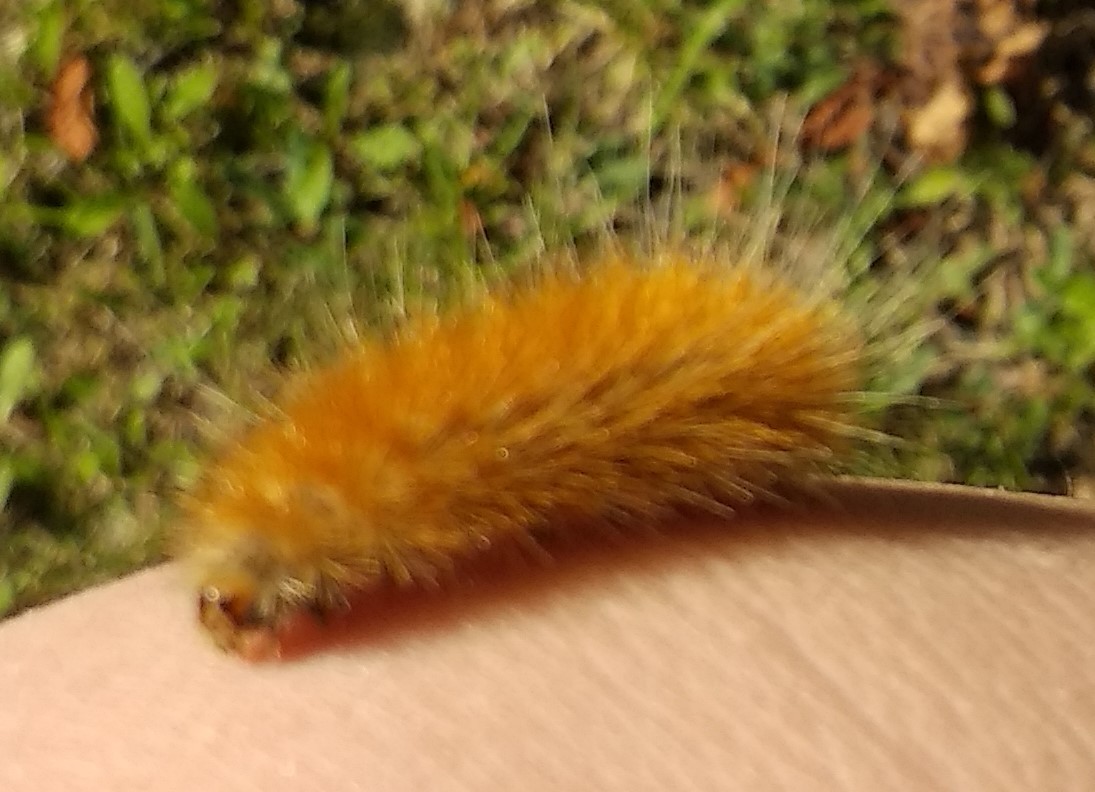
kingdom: Animalia
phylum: Arthropoda
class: Insecta
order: Lepidoptera
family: Erebidae
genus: Spilosoma
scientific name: Spilosoma virginica
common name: Virginia tiger moth
